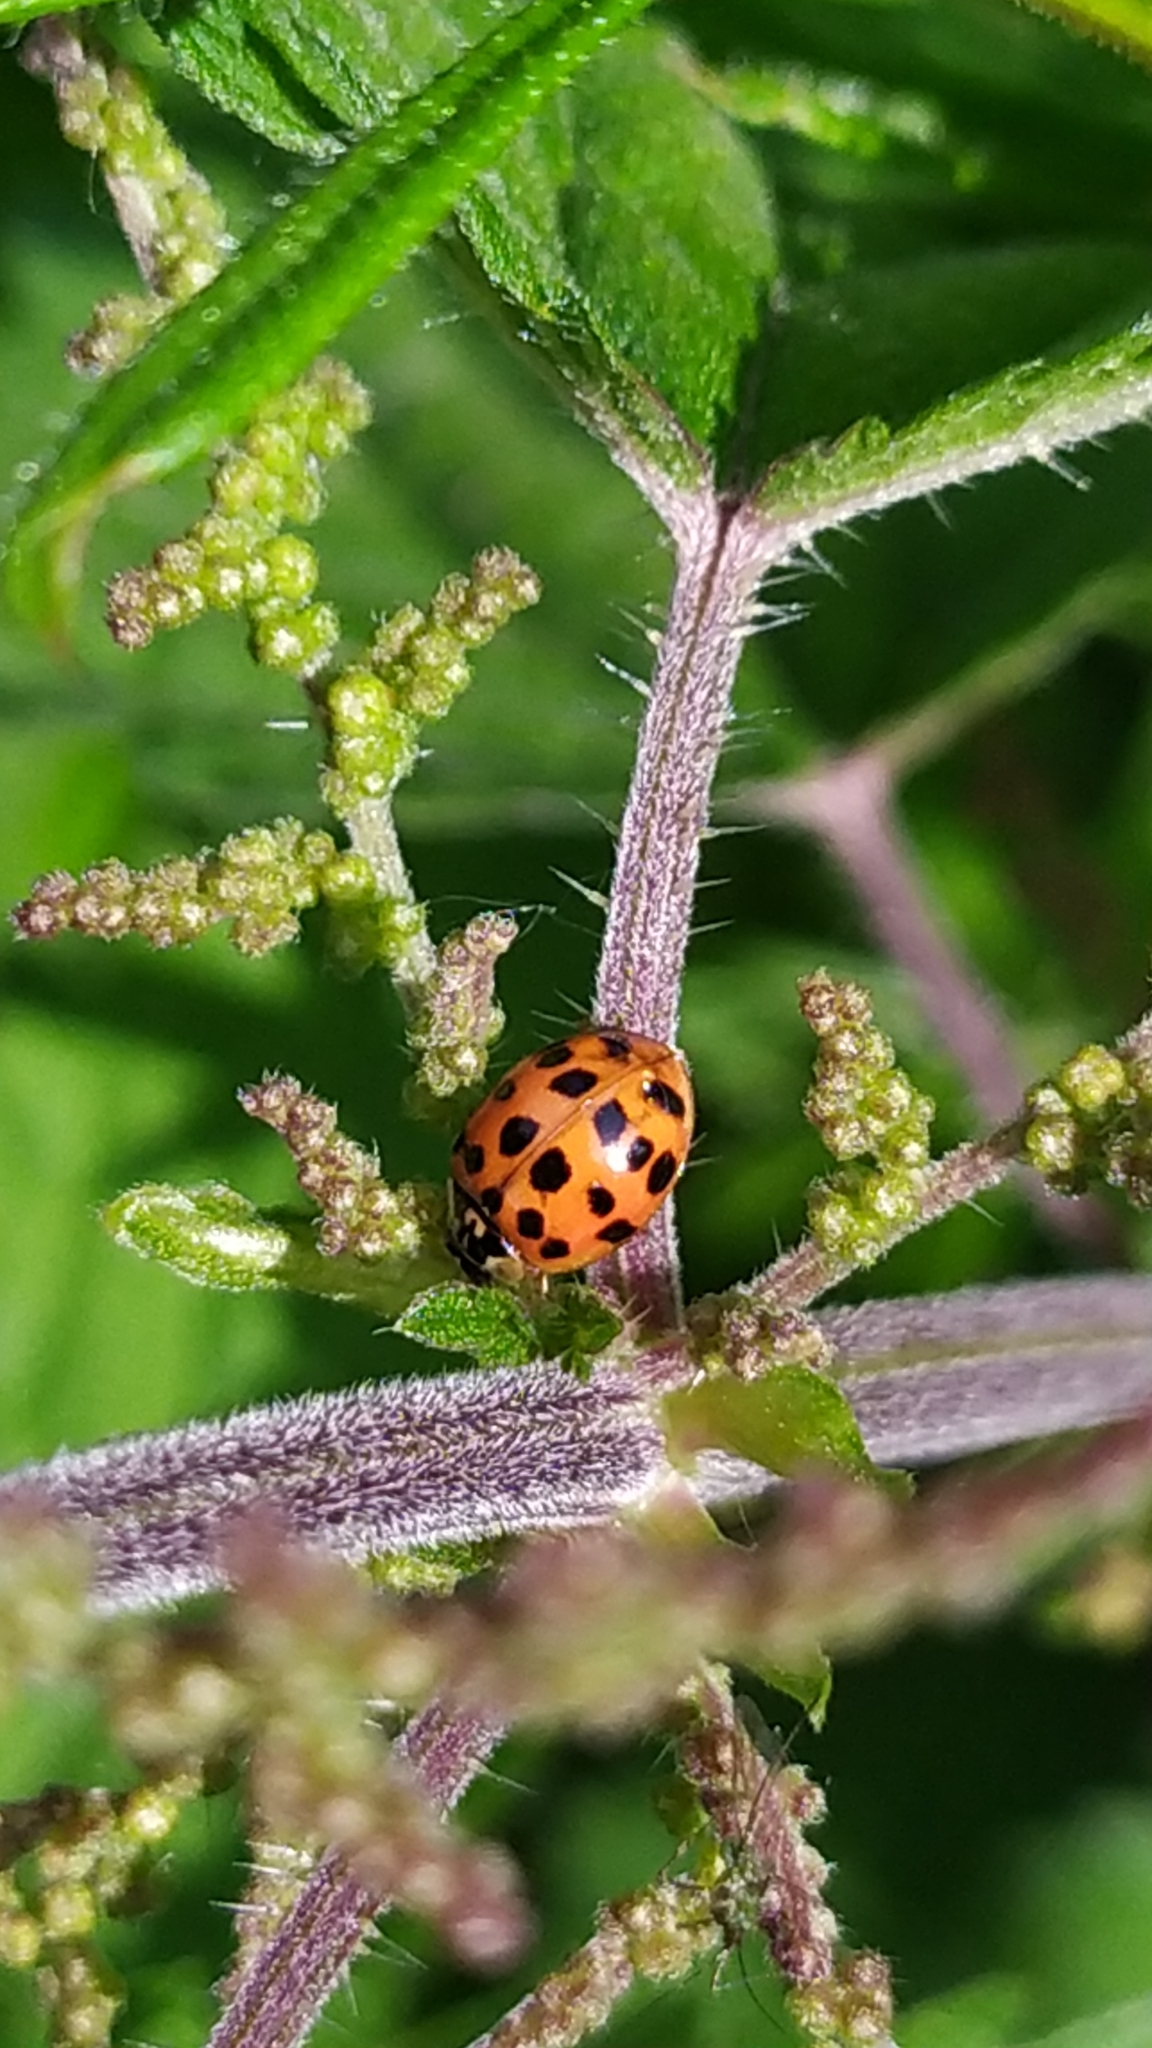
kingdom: Animalia
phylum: Arthropoda
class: Insecta
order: Coleoptera
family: Coccinellidae
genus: Harmonia
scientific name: Harmonia axyridis
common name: Harlequin ladybird
